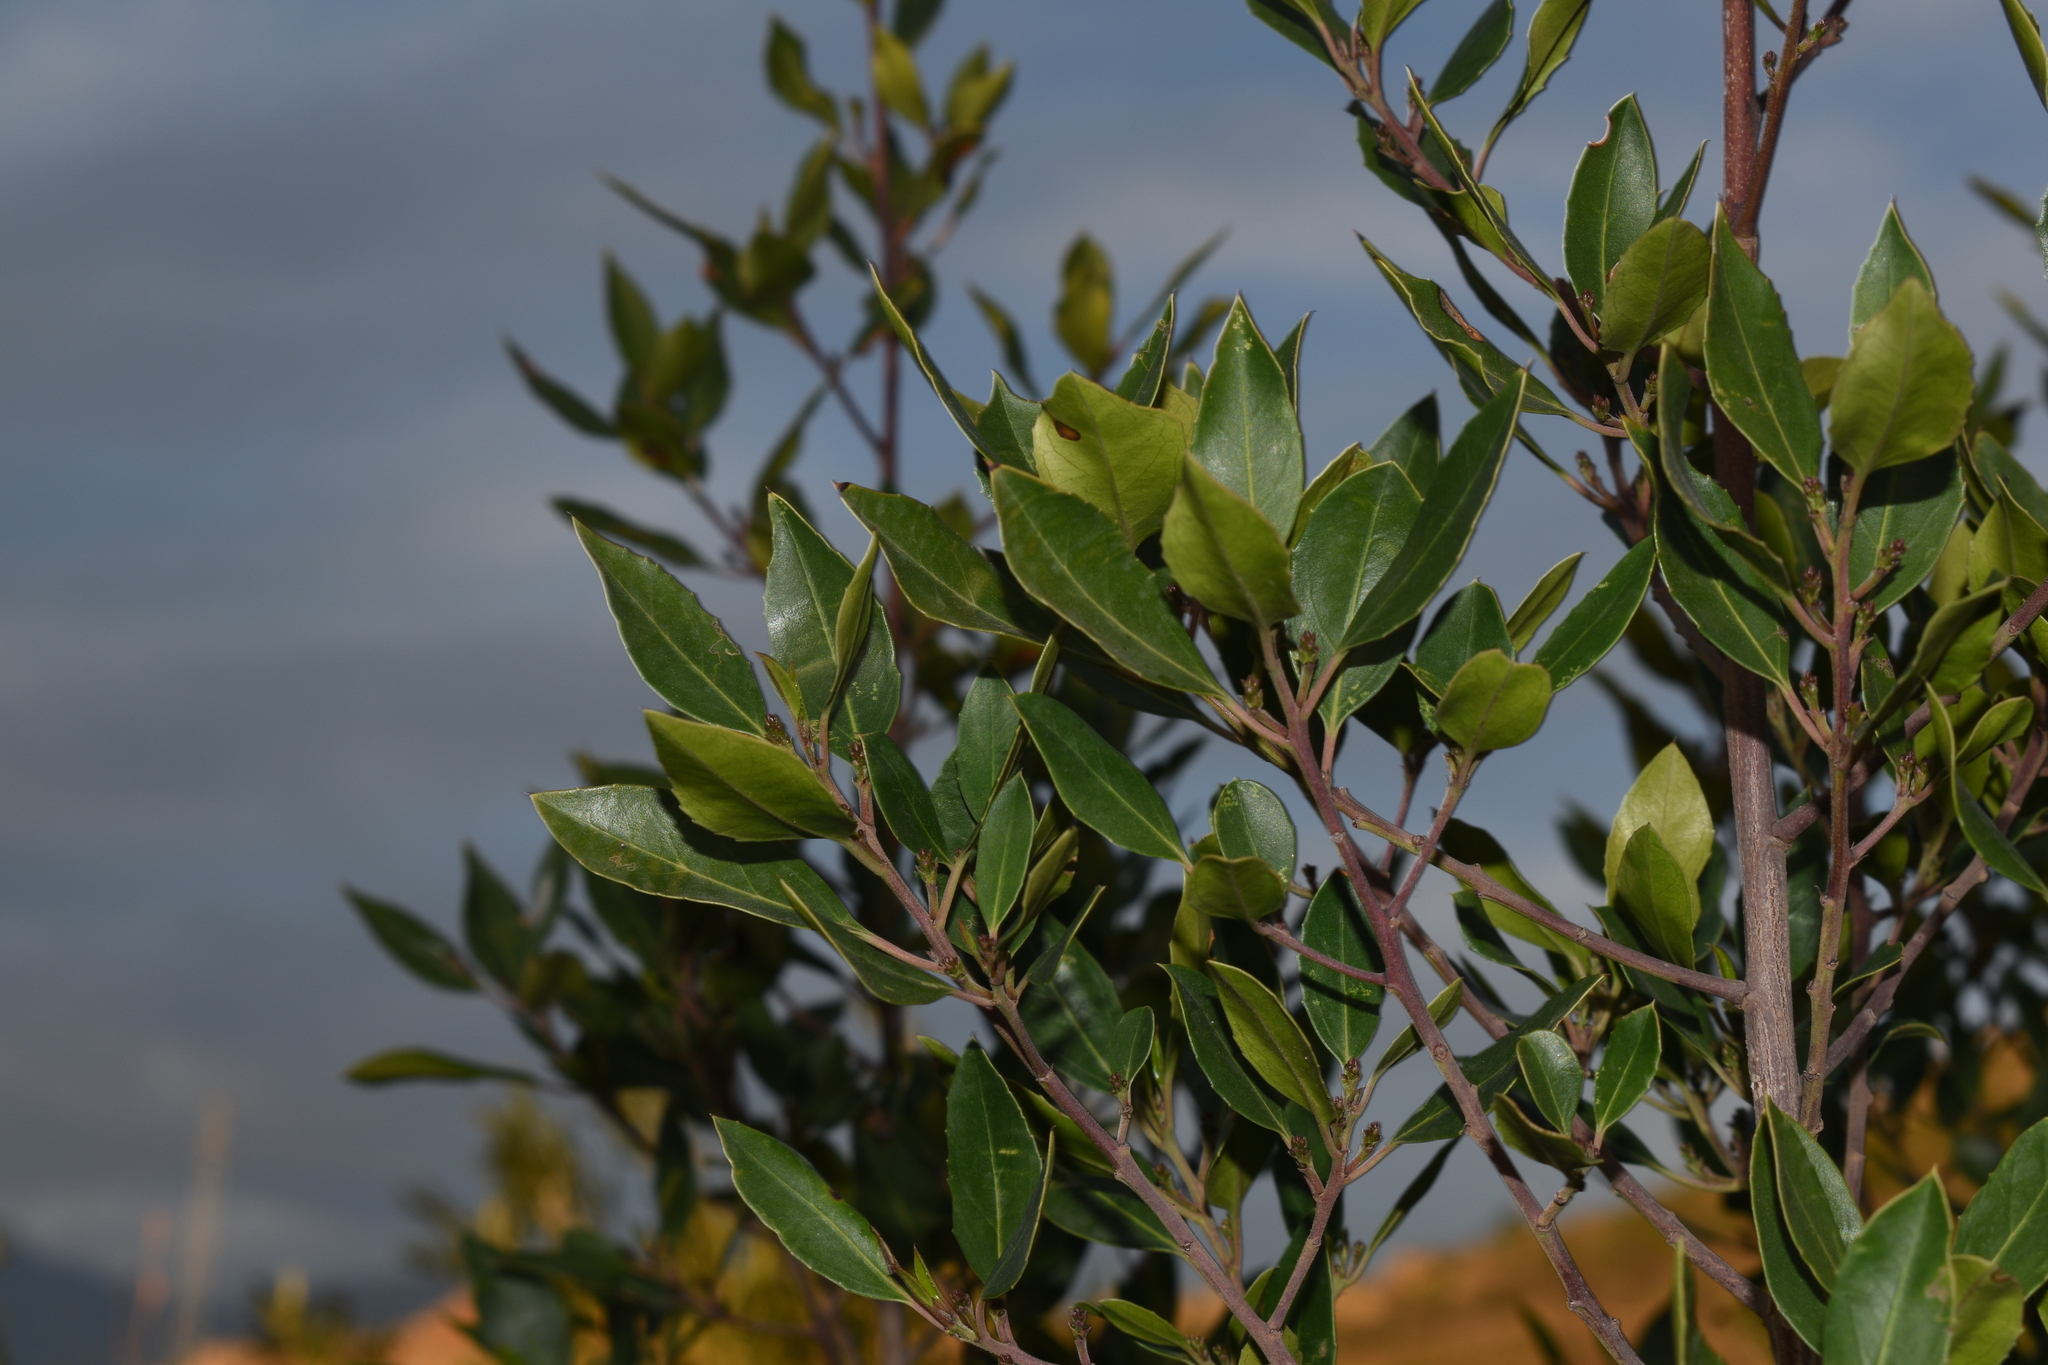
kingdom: Plantae
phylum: Tracheophyta
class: Magnoliopsida
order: Rosales
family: Rhamnaceae
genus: Rhamnus
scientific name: Rhamnus alaternus
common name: Mediterranean buckthorn
